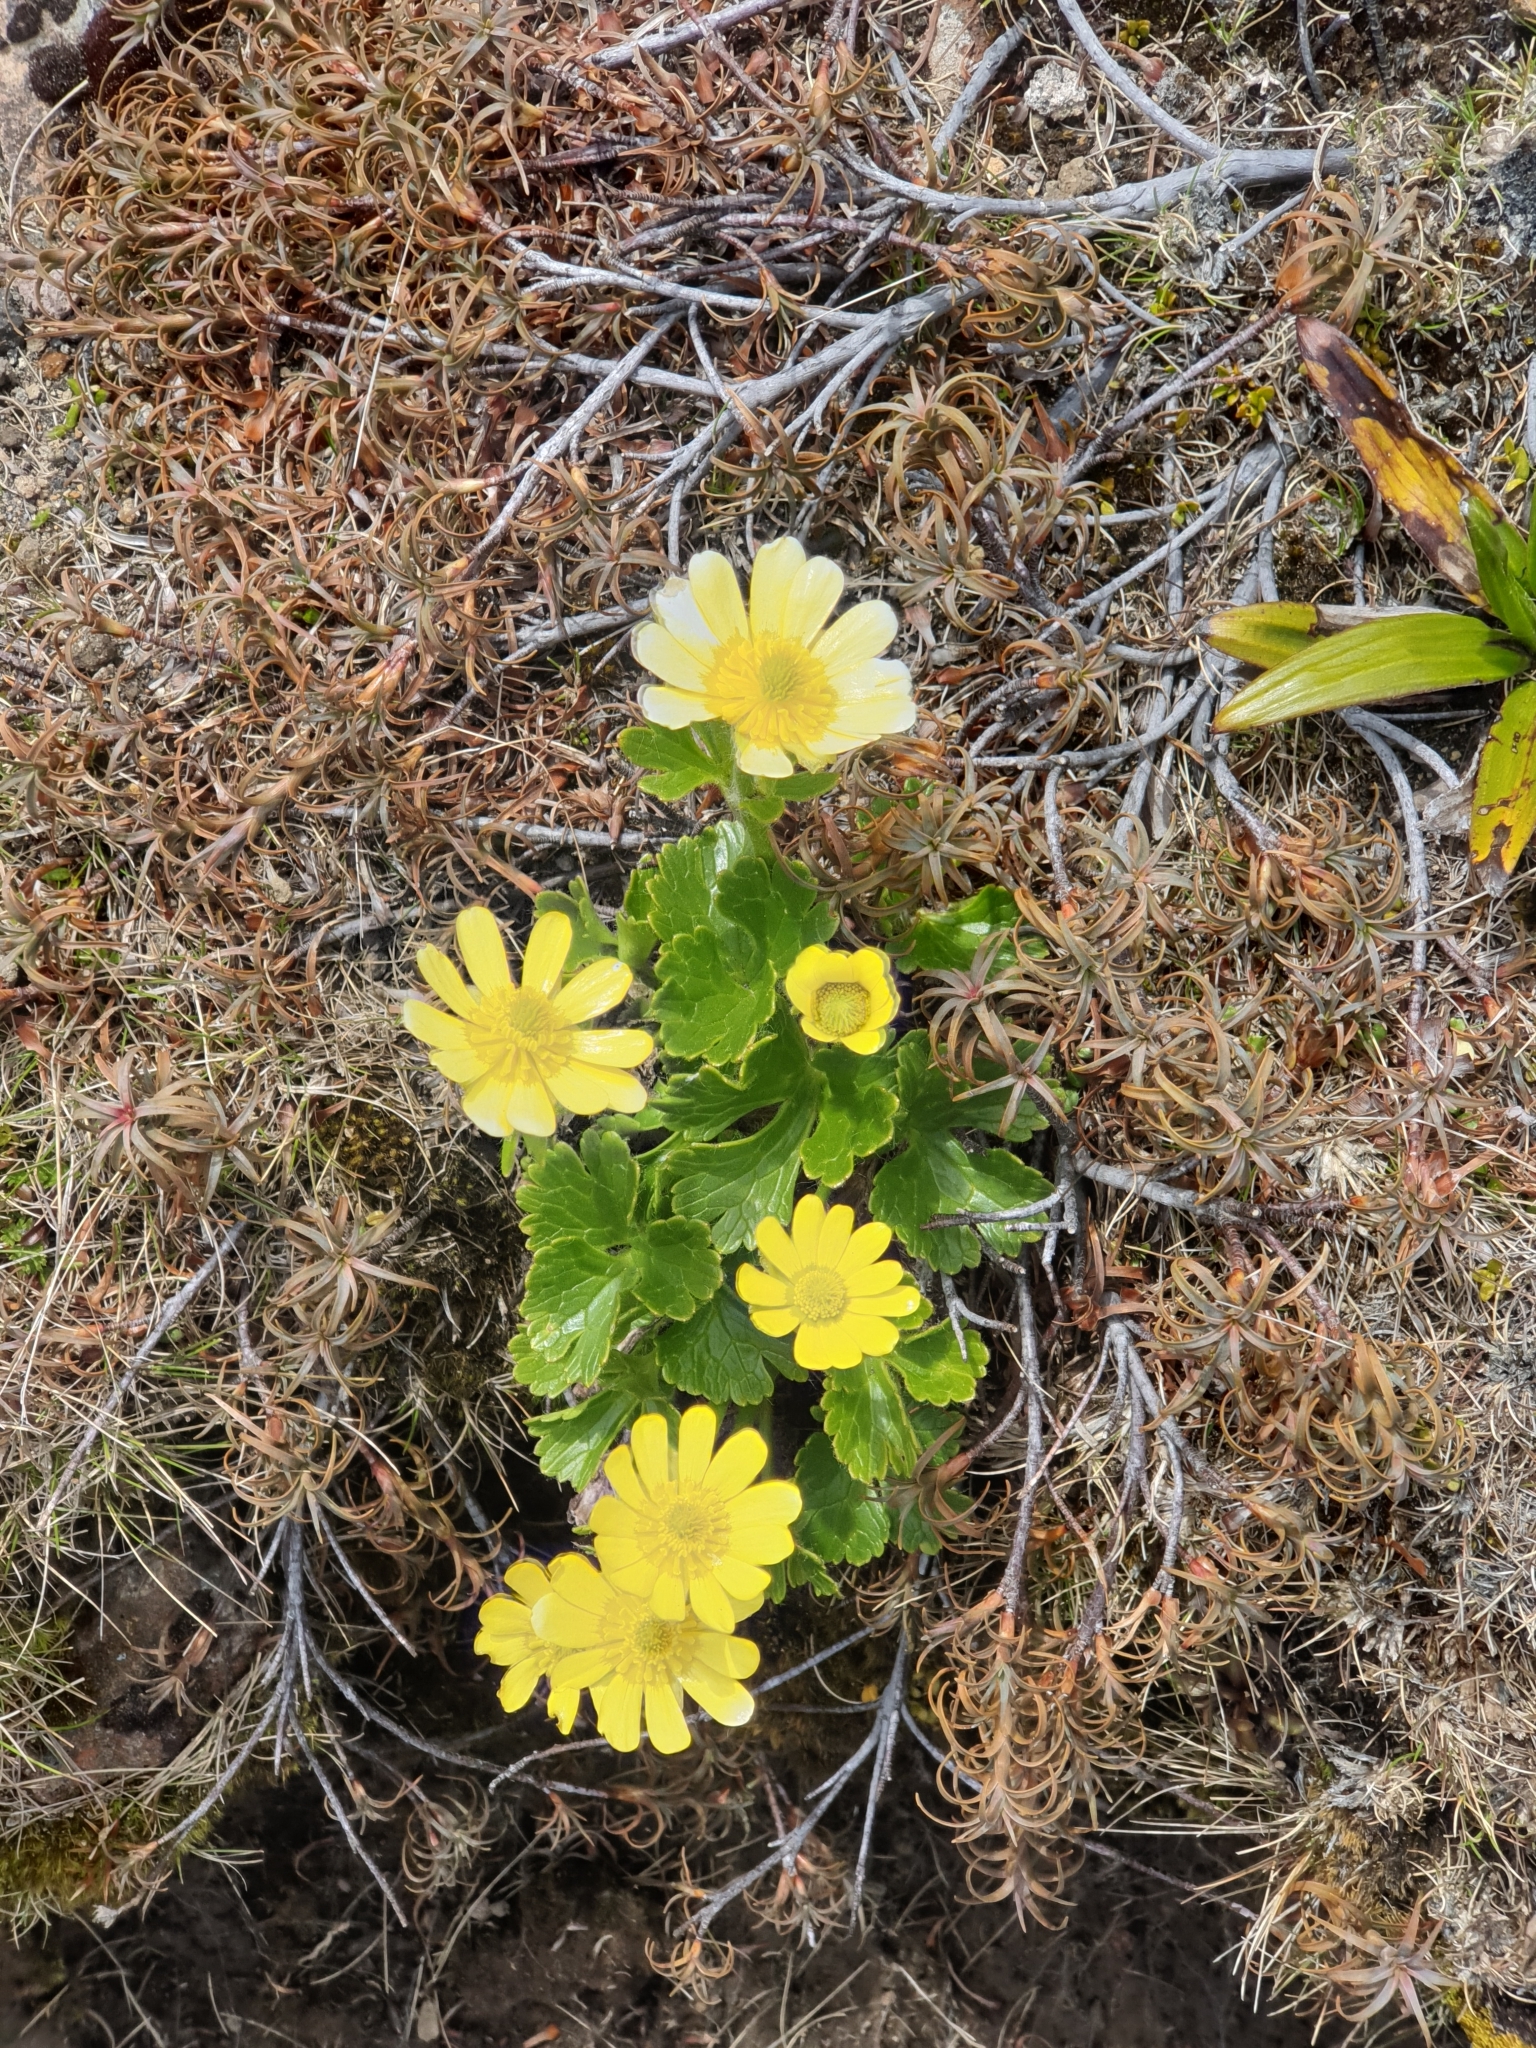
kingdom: Plantae
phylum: Tracheophyta
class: Magnoliopsida
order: Ranunculales
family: Ranunculaceae
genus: Ranunculus
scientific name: Ranunculus nivicola
